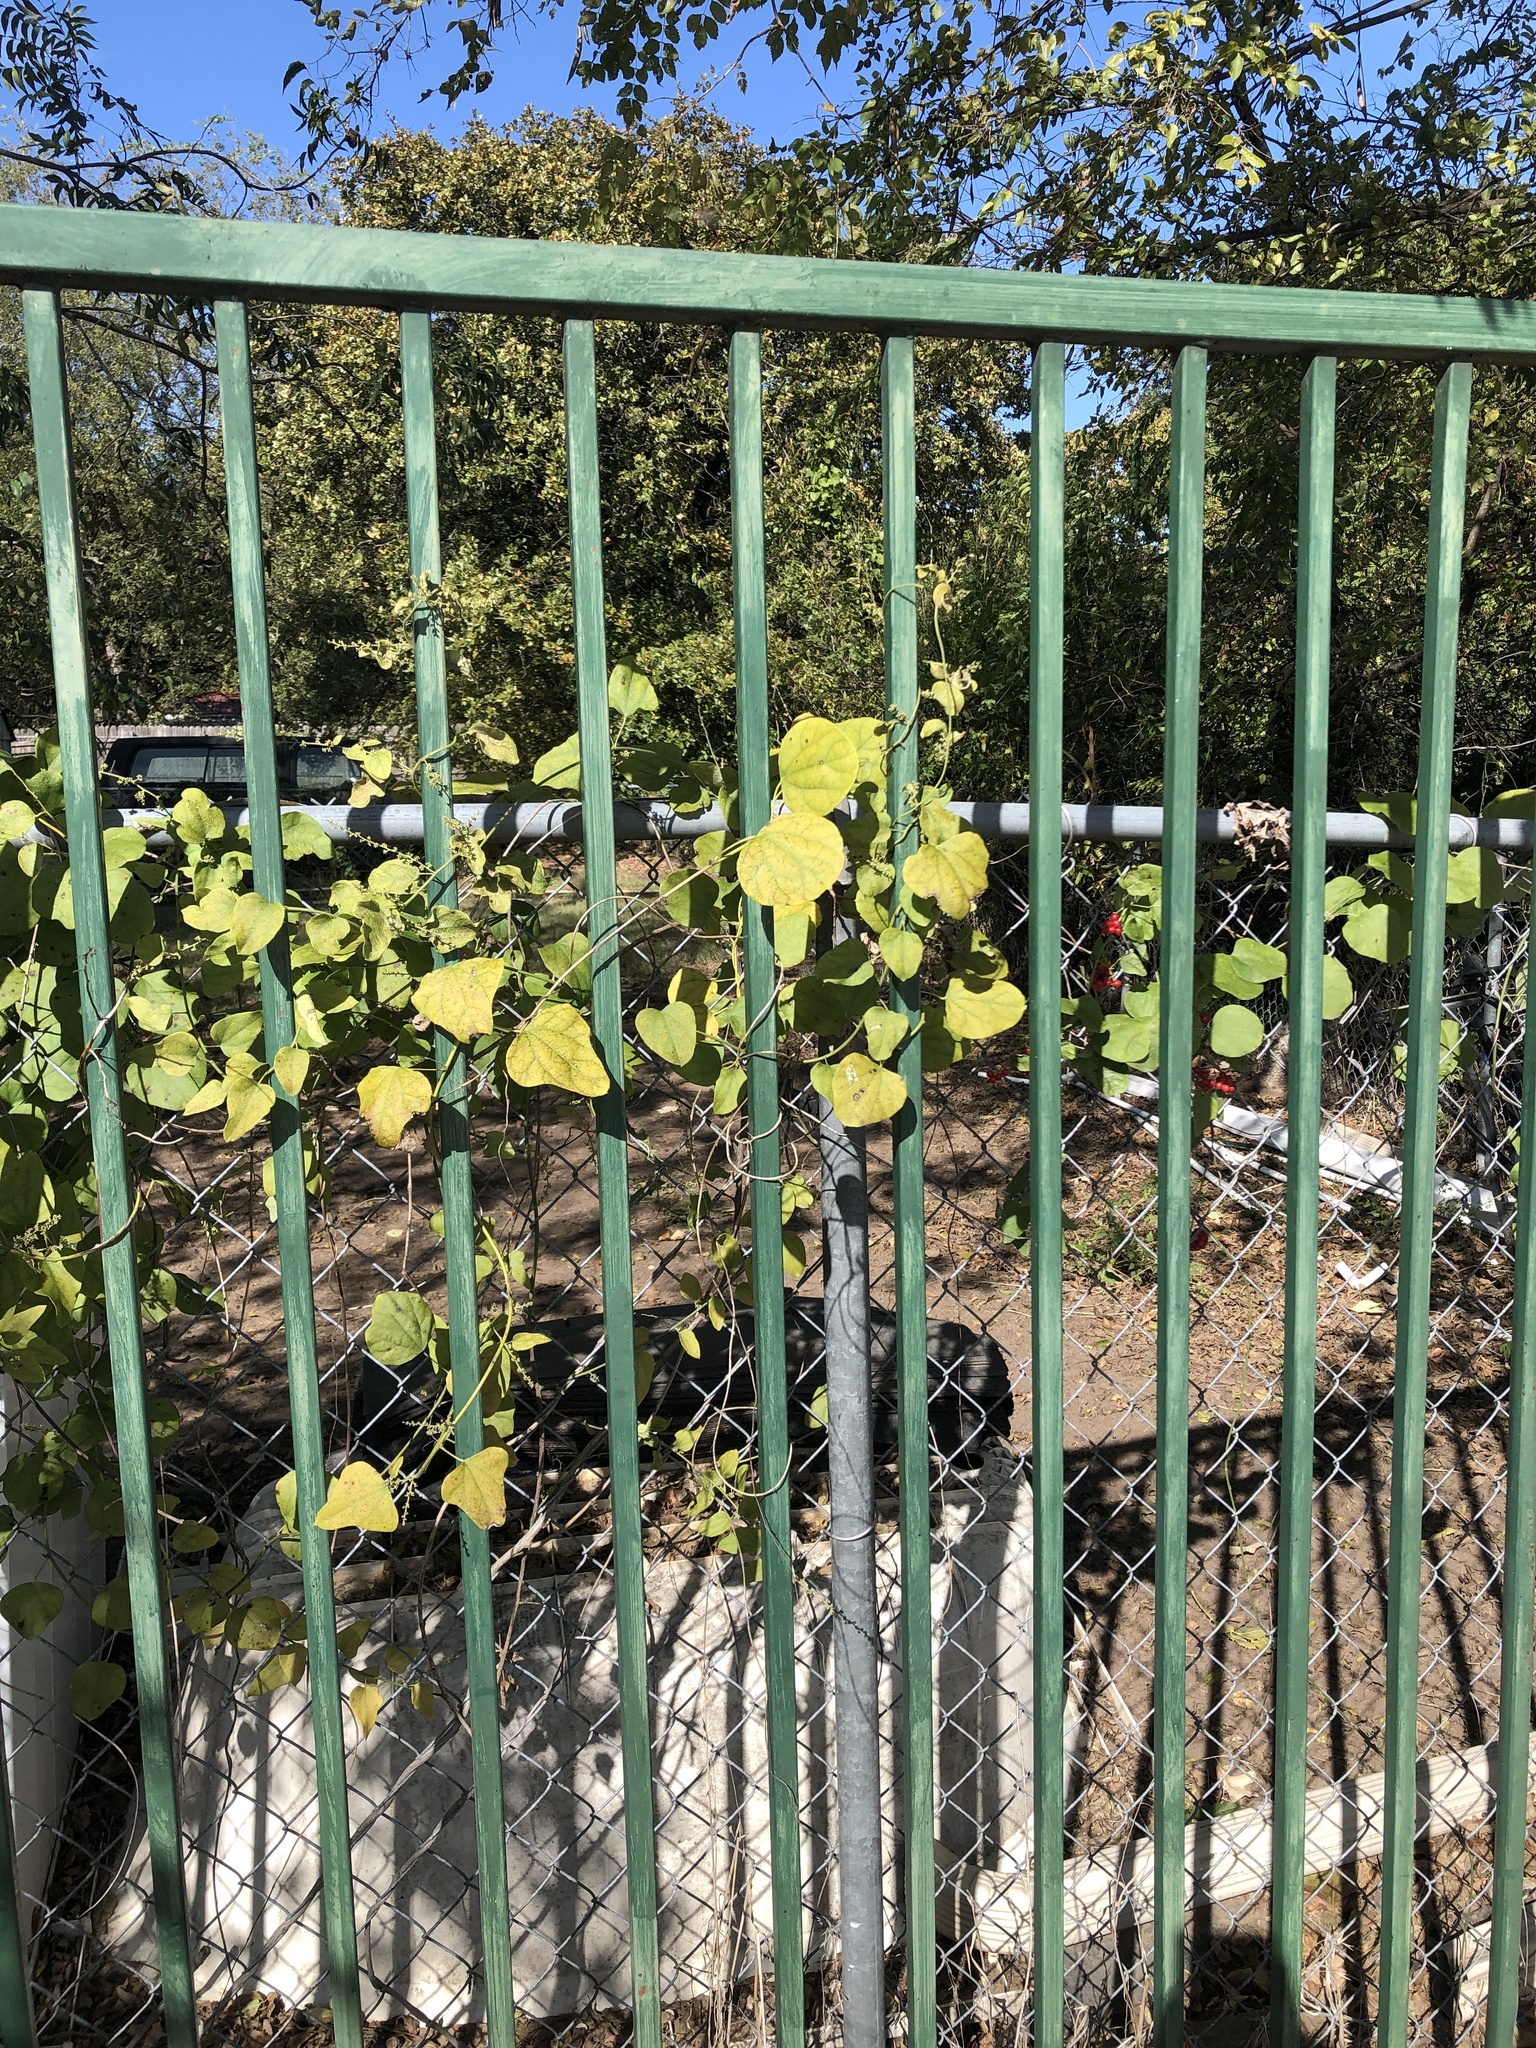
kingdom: Plantae
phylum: Tracheophyta
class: Magnoliopsida
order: Ranunculales
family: Menispermaceae
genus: Cocculus
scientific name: Cocculus carolinus
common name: Carolina moonseed
